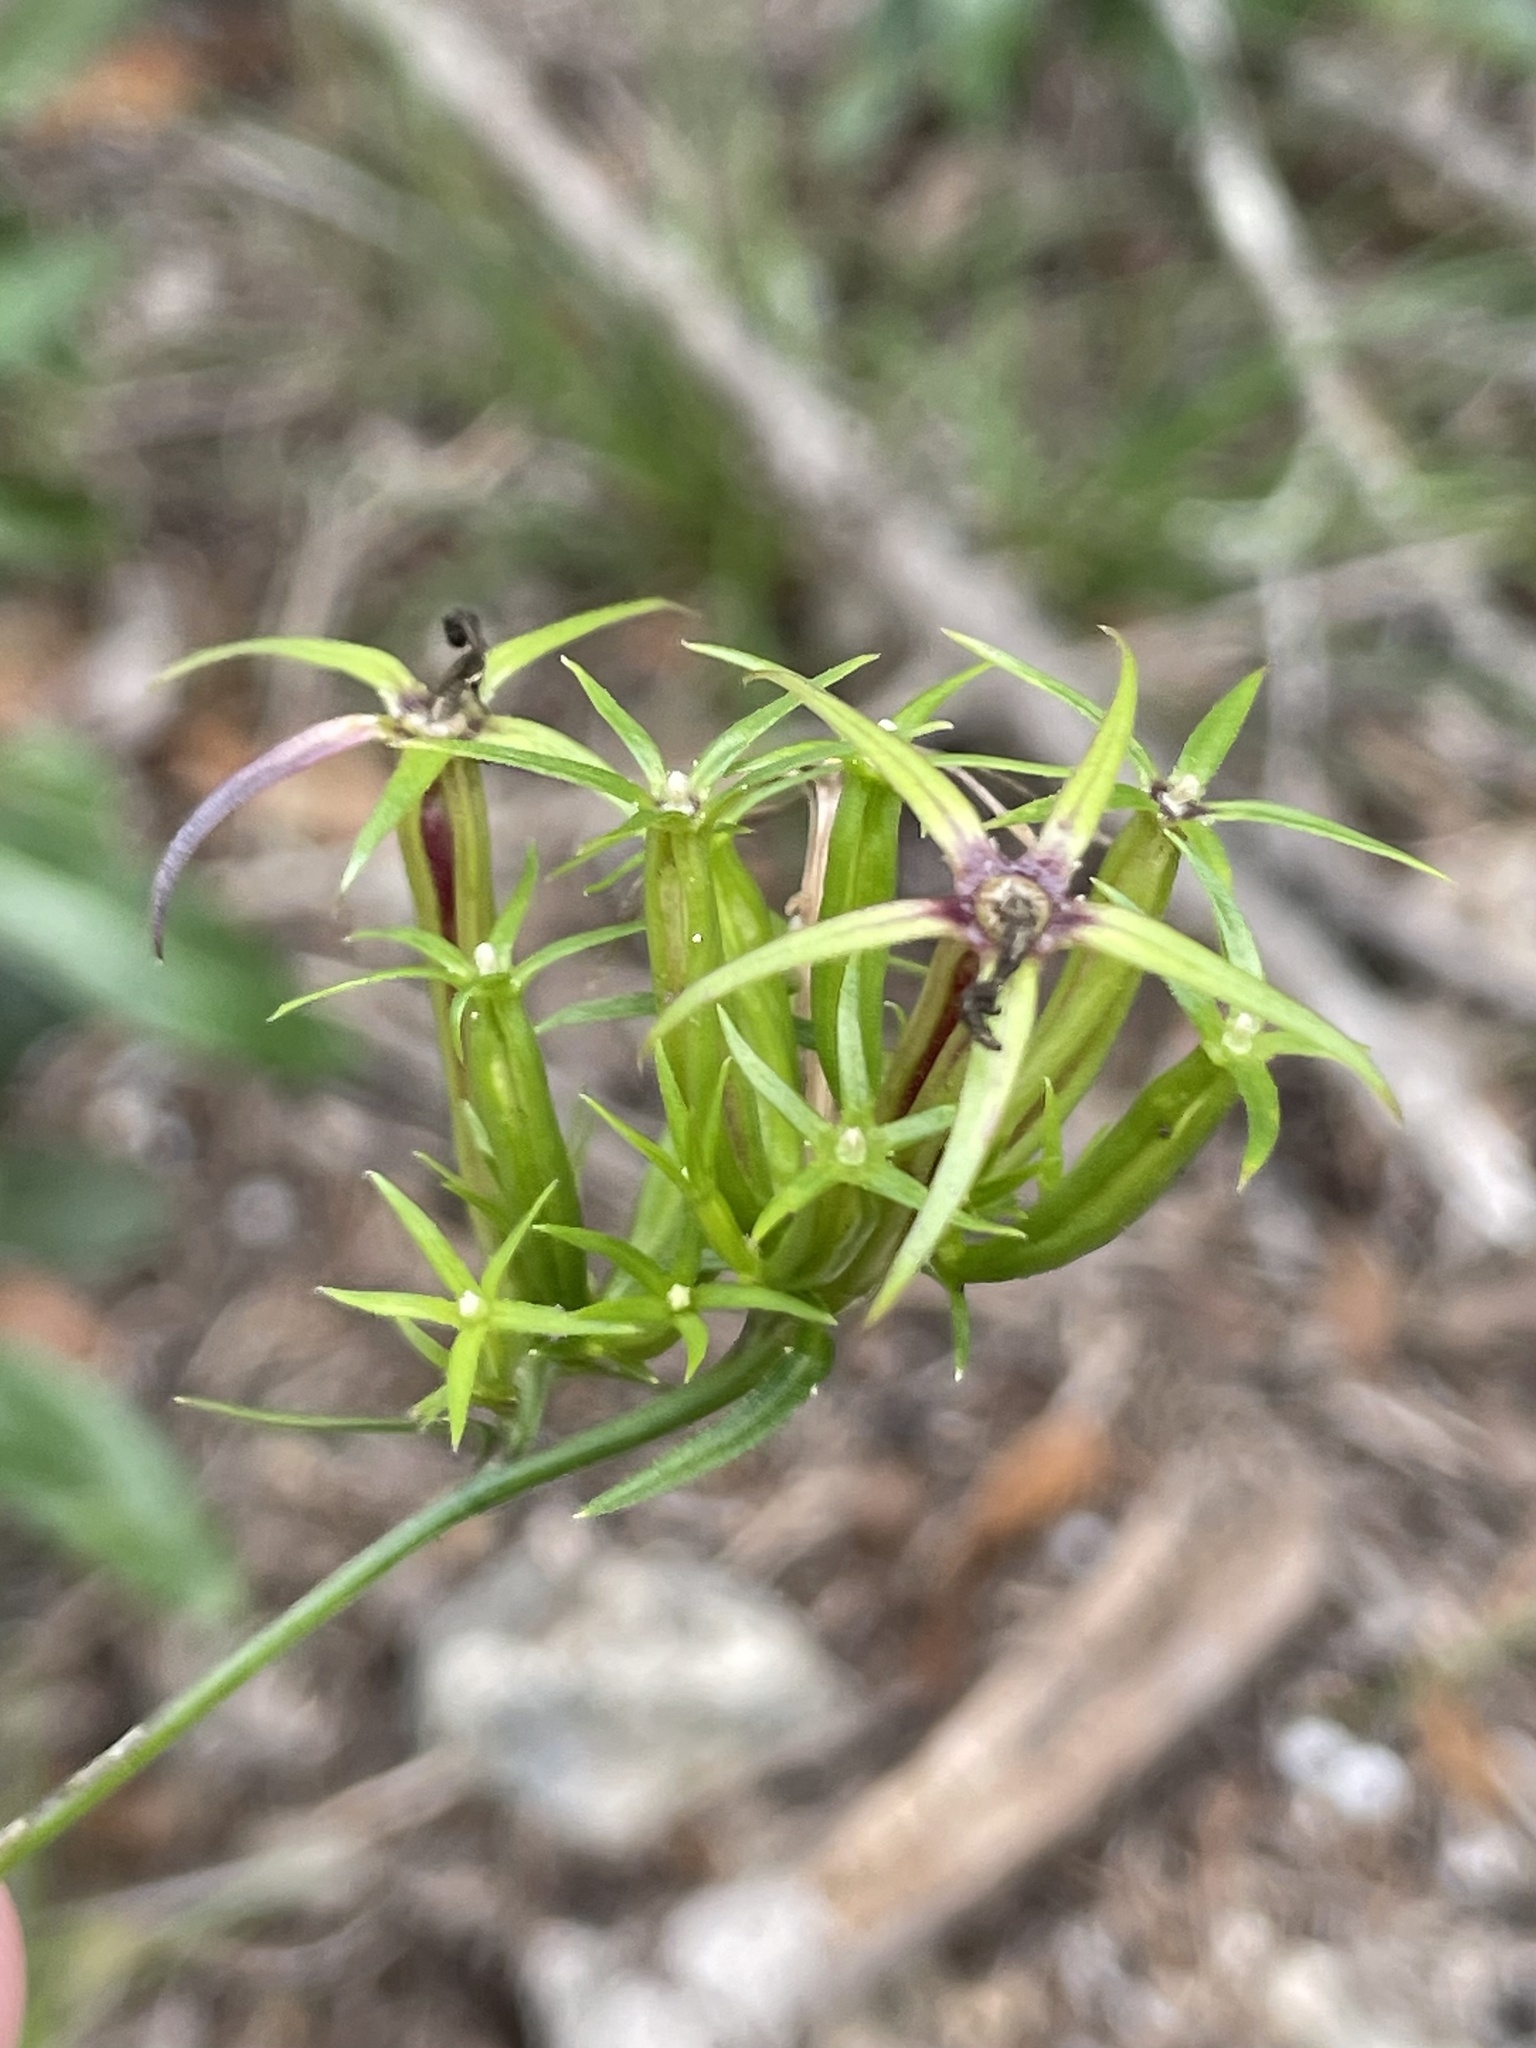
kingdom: Plantae
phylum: Tracheophyta
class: Magnoliopsida
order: Asterales
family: Campanulaceae
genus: Triodanis
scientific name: Triodanis coloradoensis
